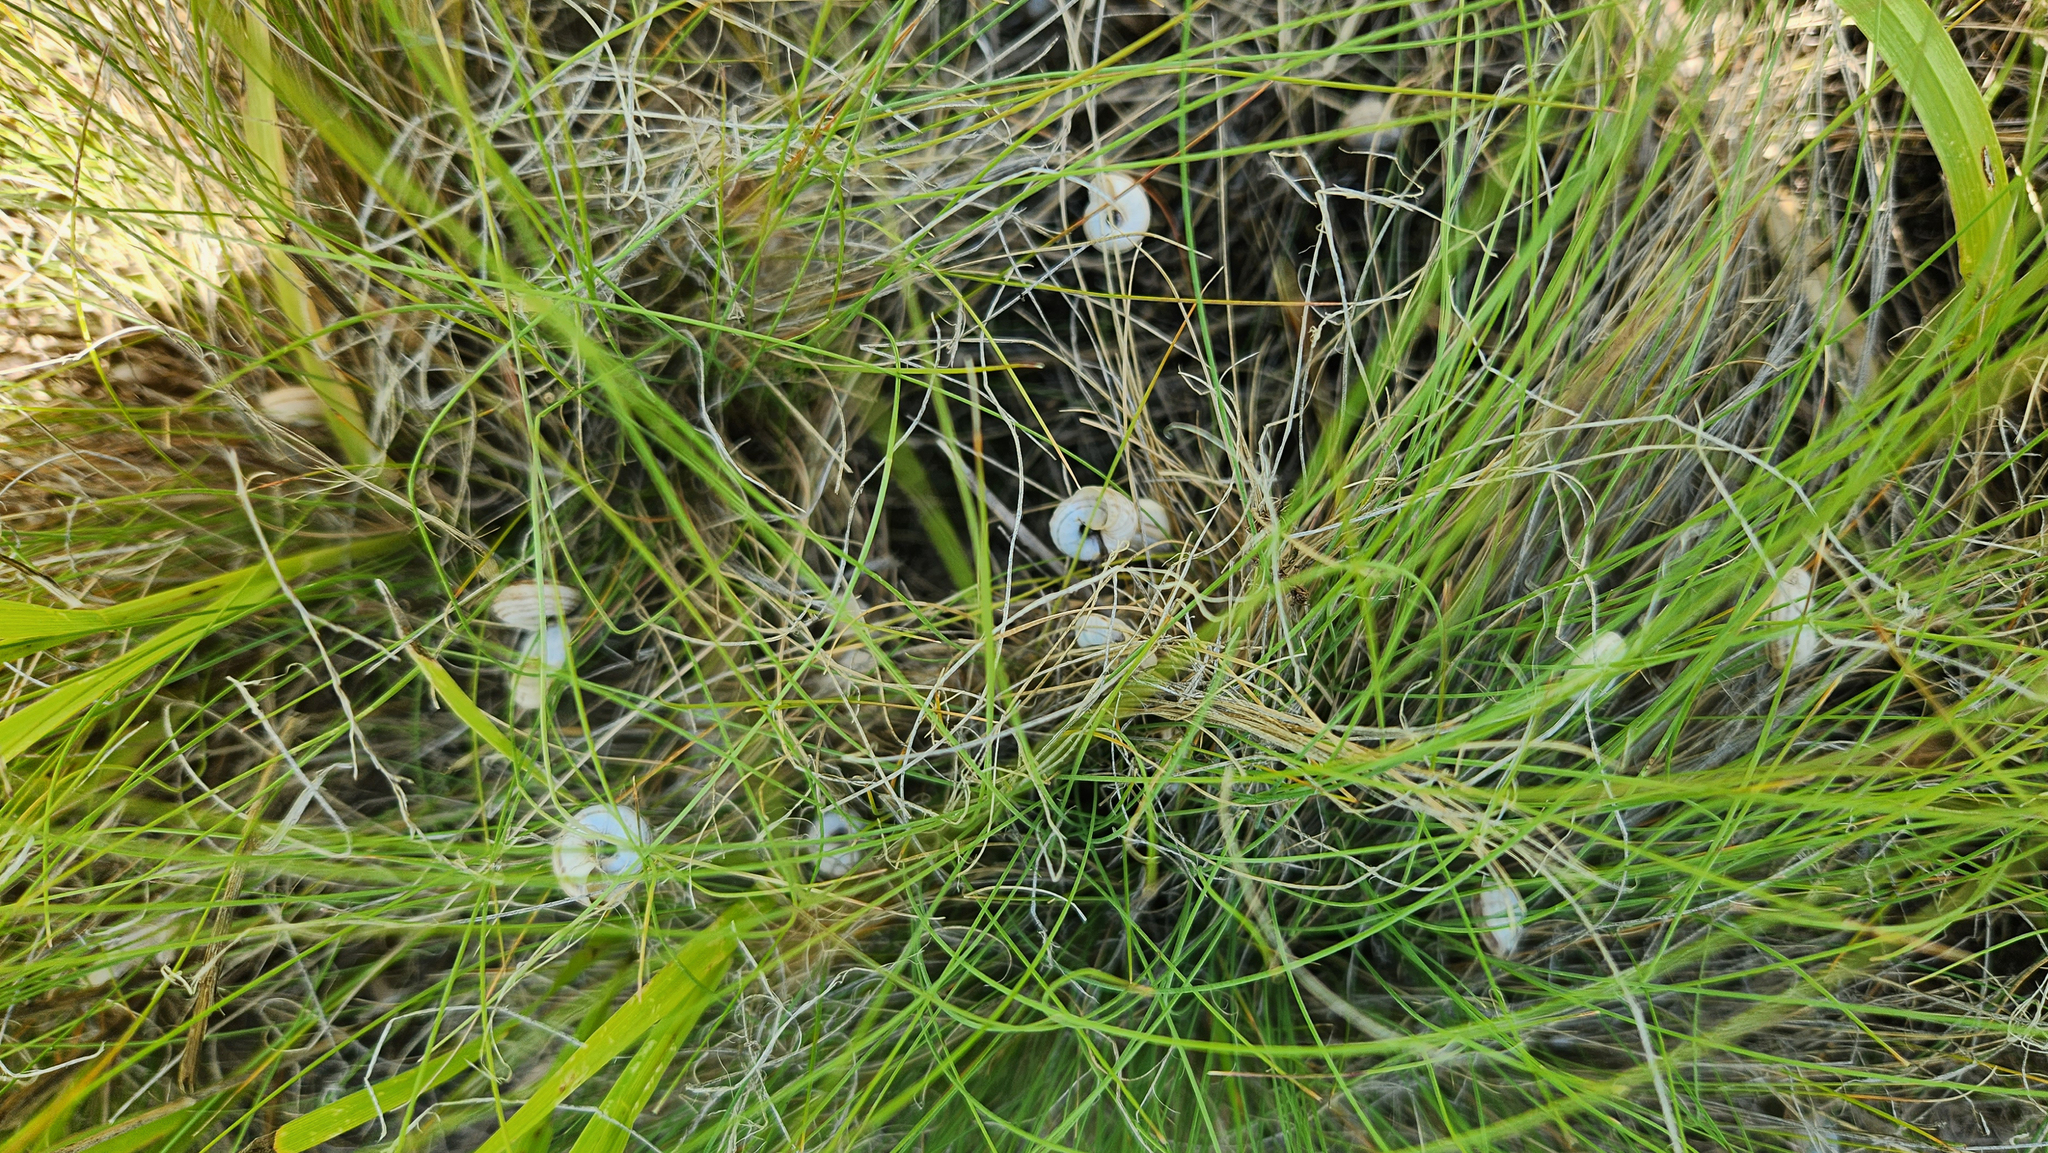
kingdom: Animalia
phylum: Mollusca
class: Gastropoda
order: Stylommatophora
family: Geomitridae
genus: Xerolenta
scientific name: Xerolenta obvia
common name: White heath snail
